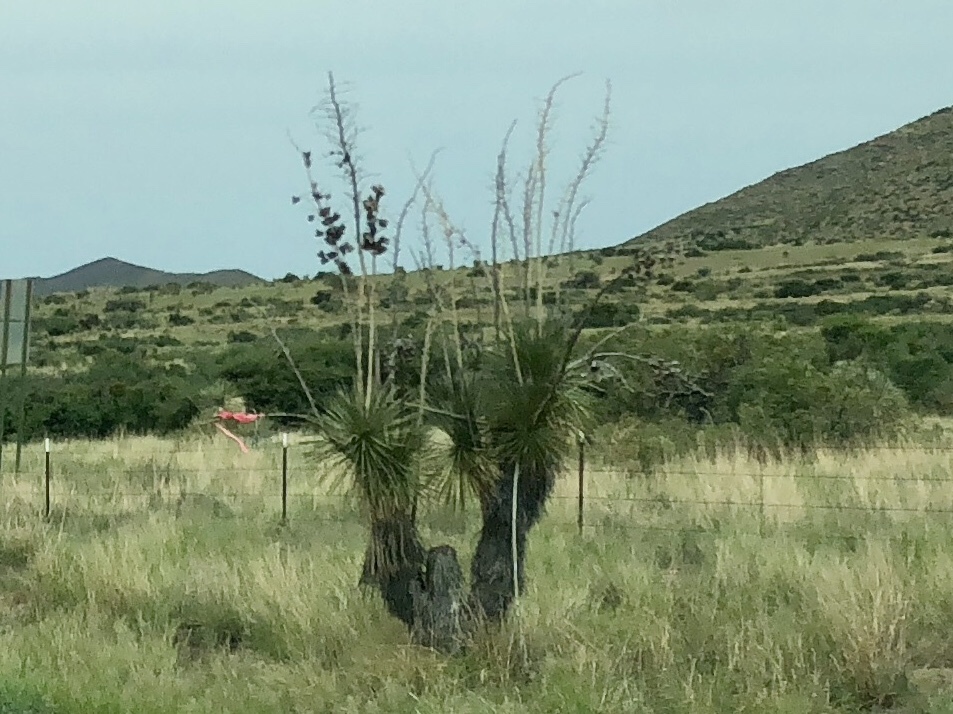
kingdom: Plantae
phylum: Tracheophyta
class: Liliopsida
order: Asparagales
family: Asparagaceae
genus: Yucca
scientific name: Yucca elata
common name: Palmella
